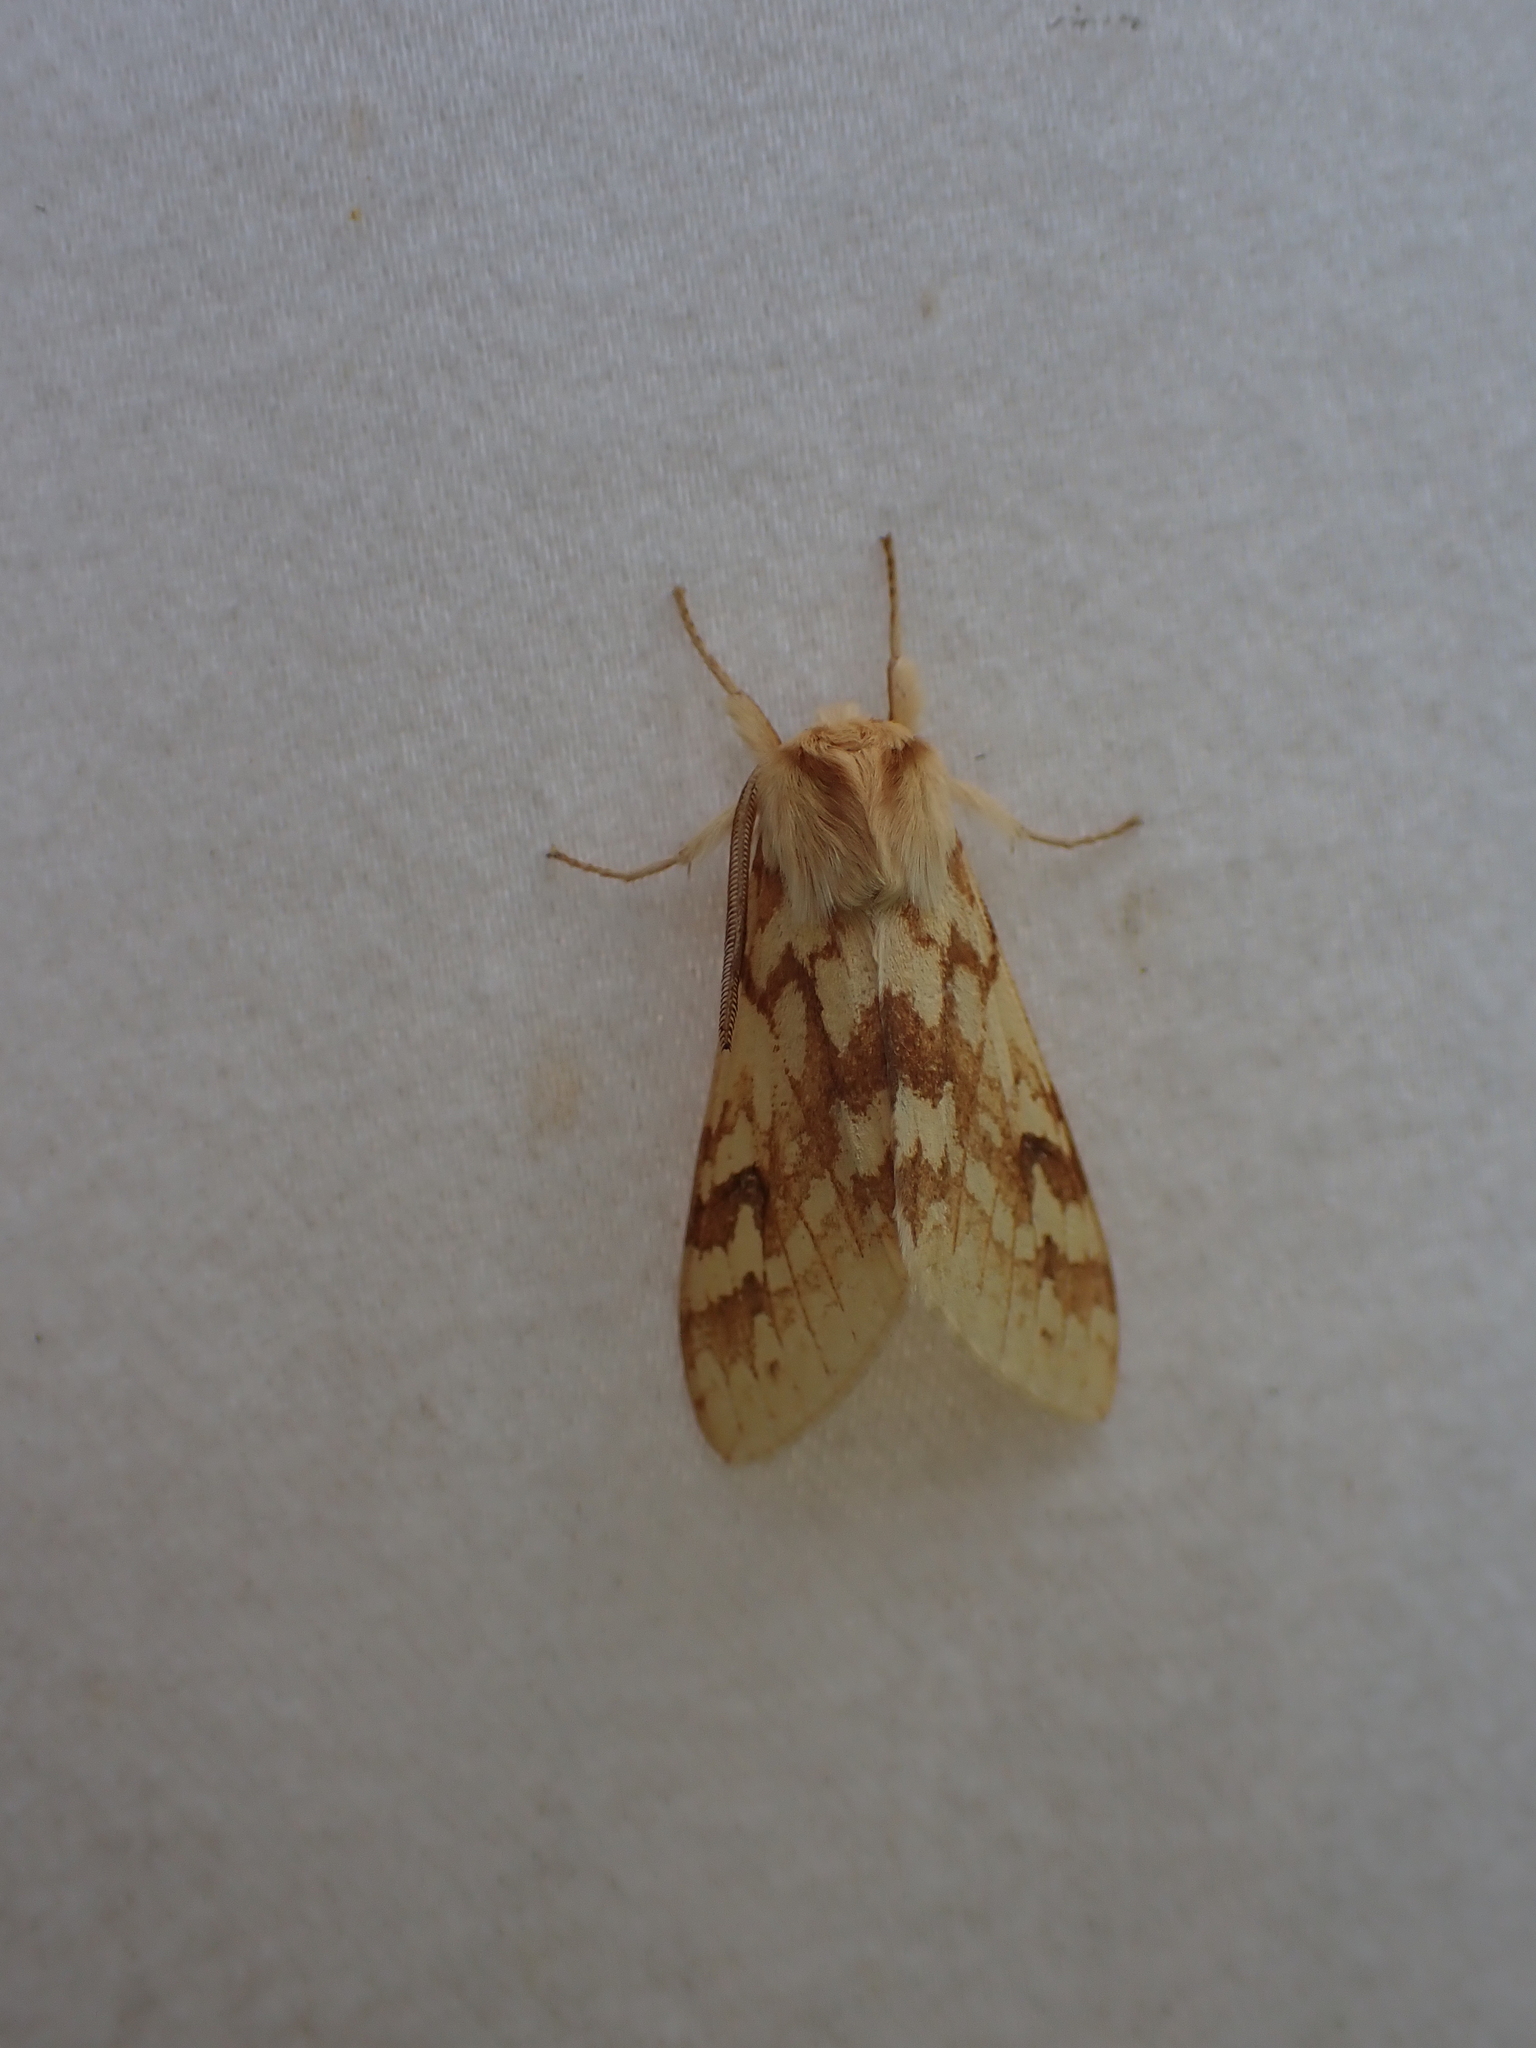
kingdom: Animalia
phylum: Arthropoda
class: Insecta
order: Lepidoptera
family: Erebidae
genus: Lophocampa
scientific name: Lophocampa maculata
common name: Spotted tussock moth
